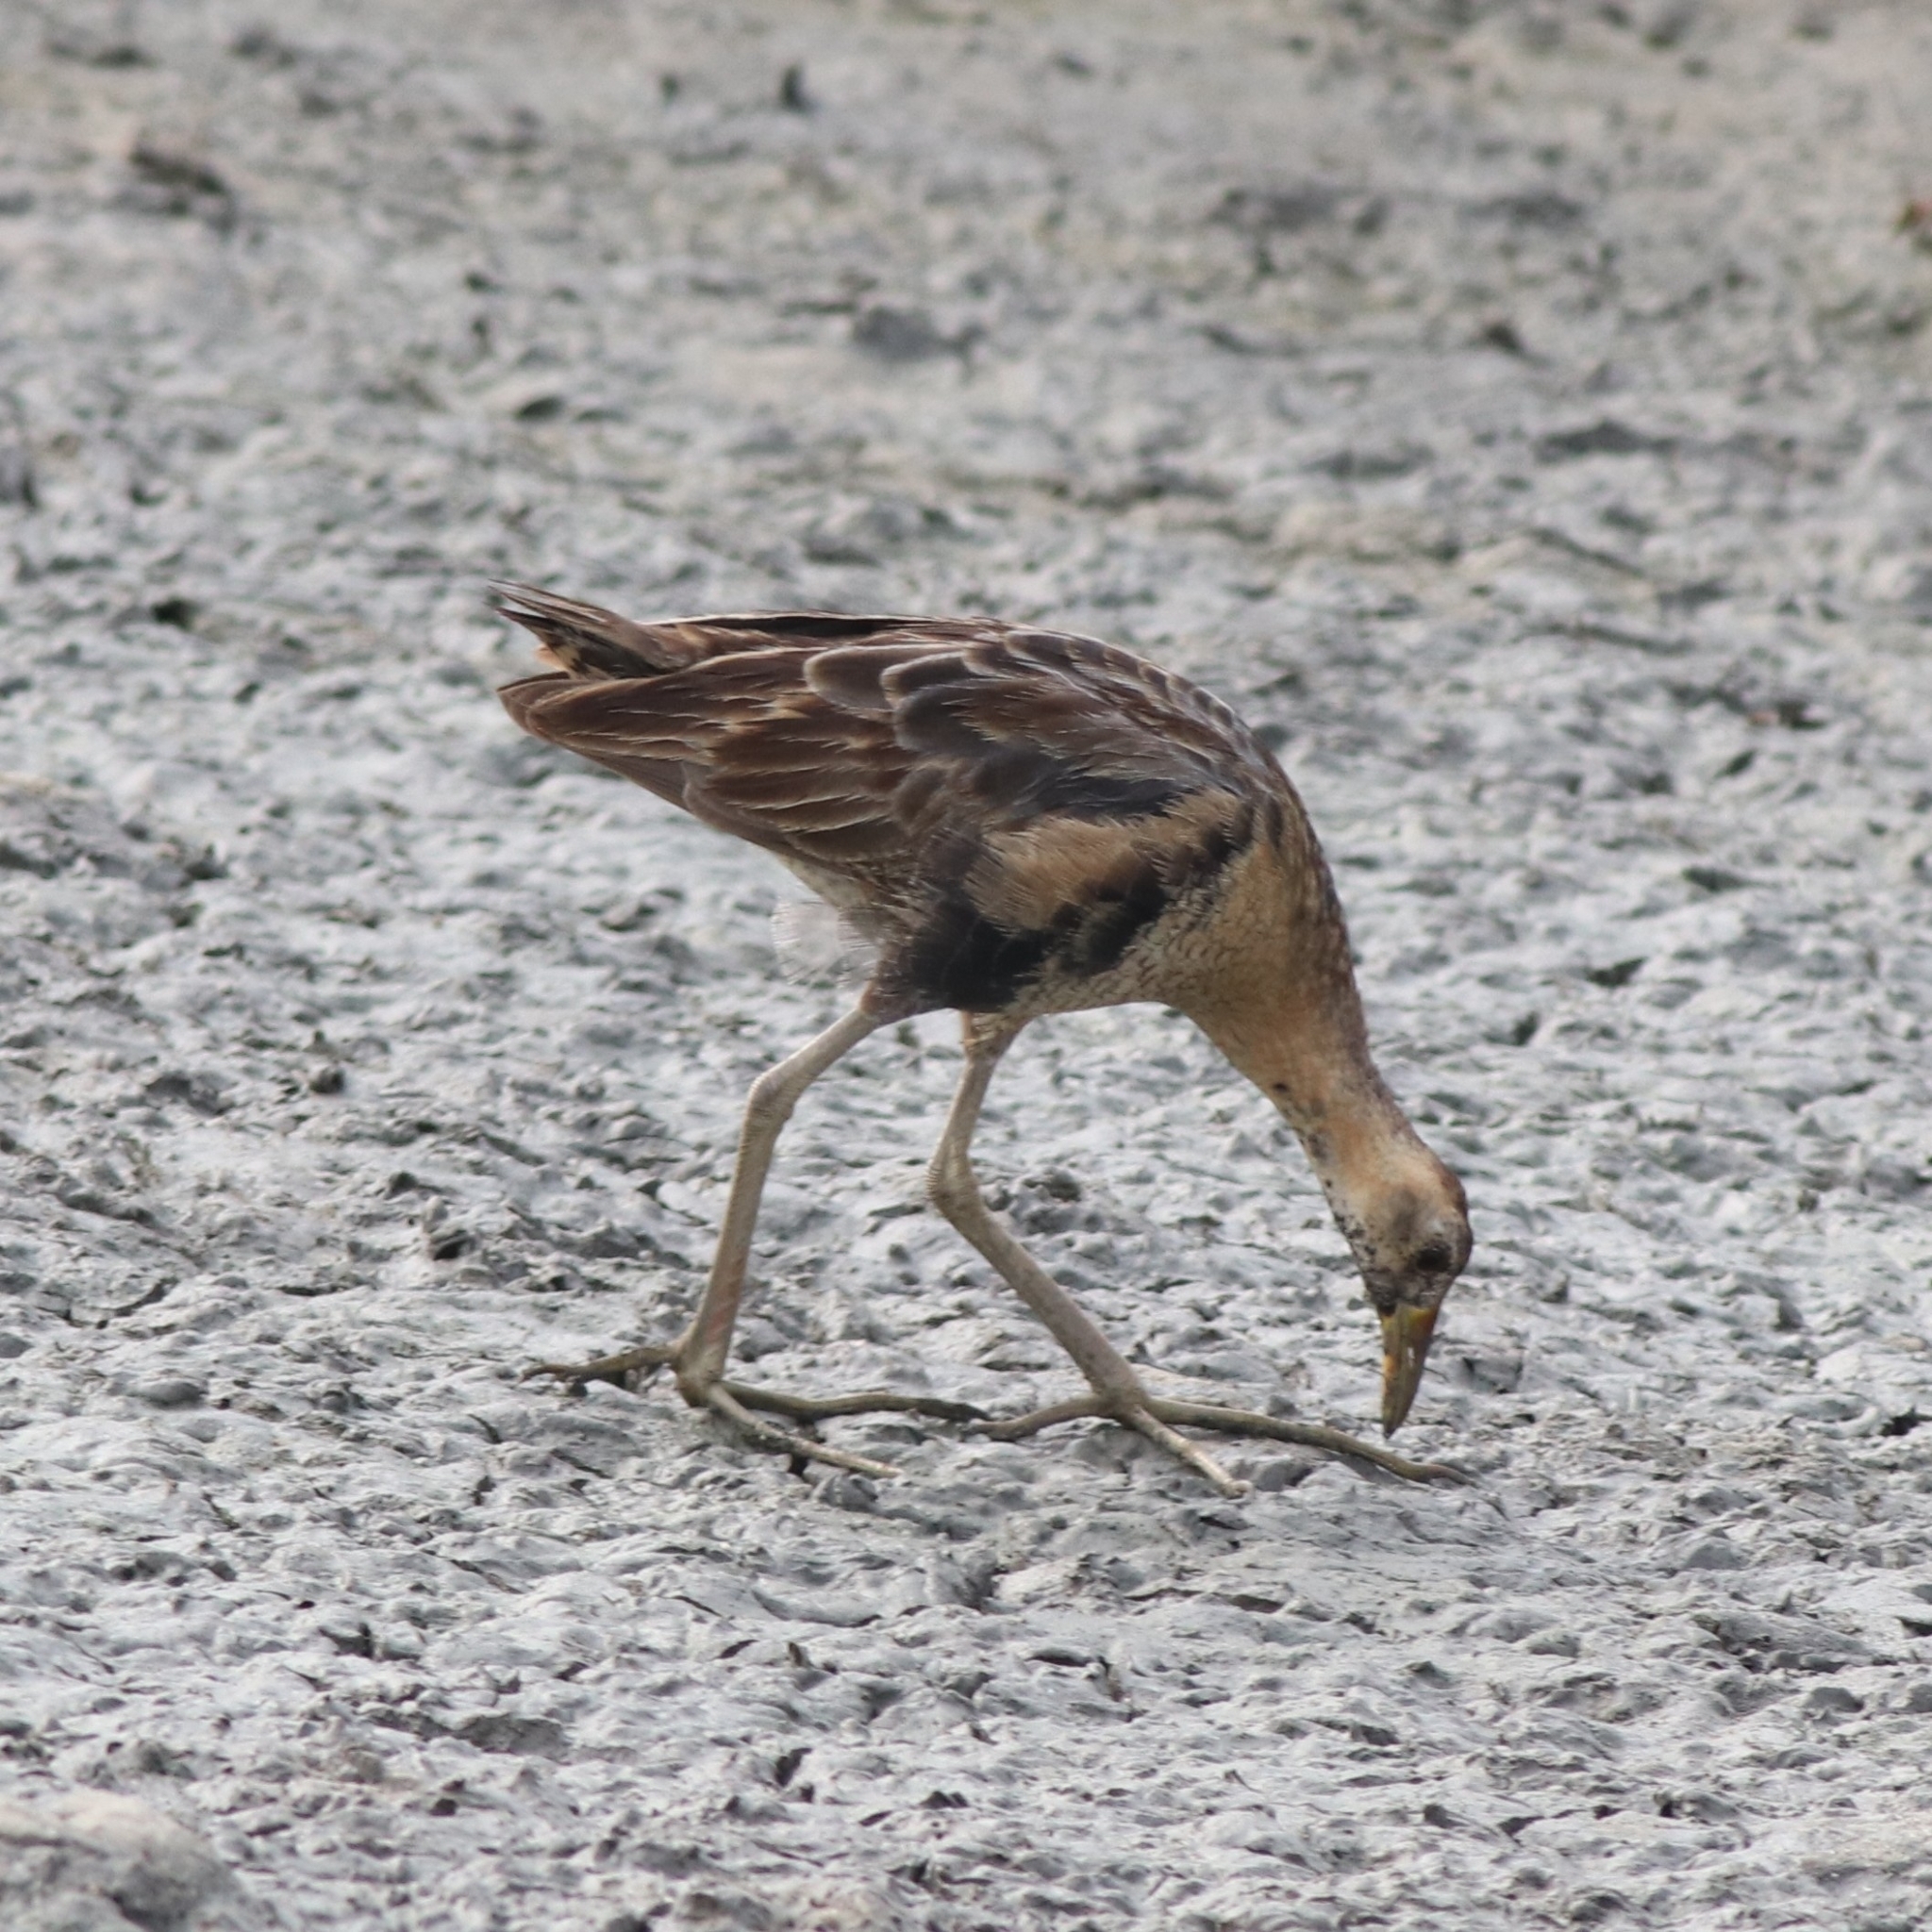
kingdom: Animalia
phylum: Chordata
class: Aves
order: Gruiformes
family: Rallidae
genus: Gallicrex
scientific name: Gallicrex cinerea
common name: Watercock
